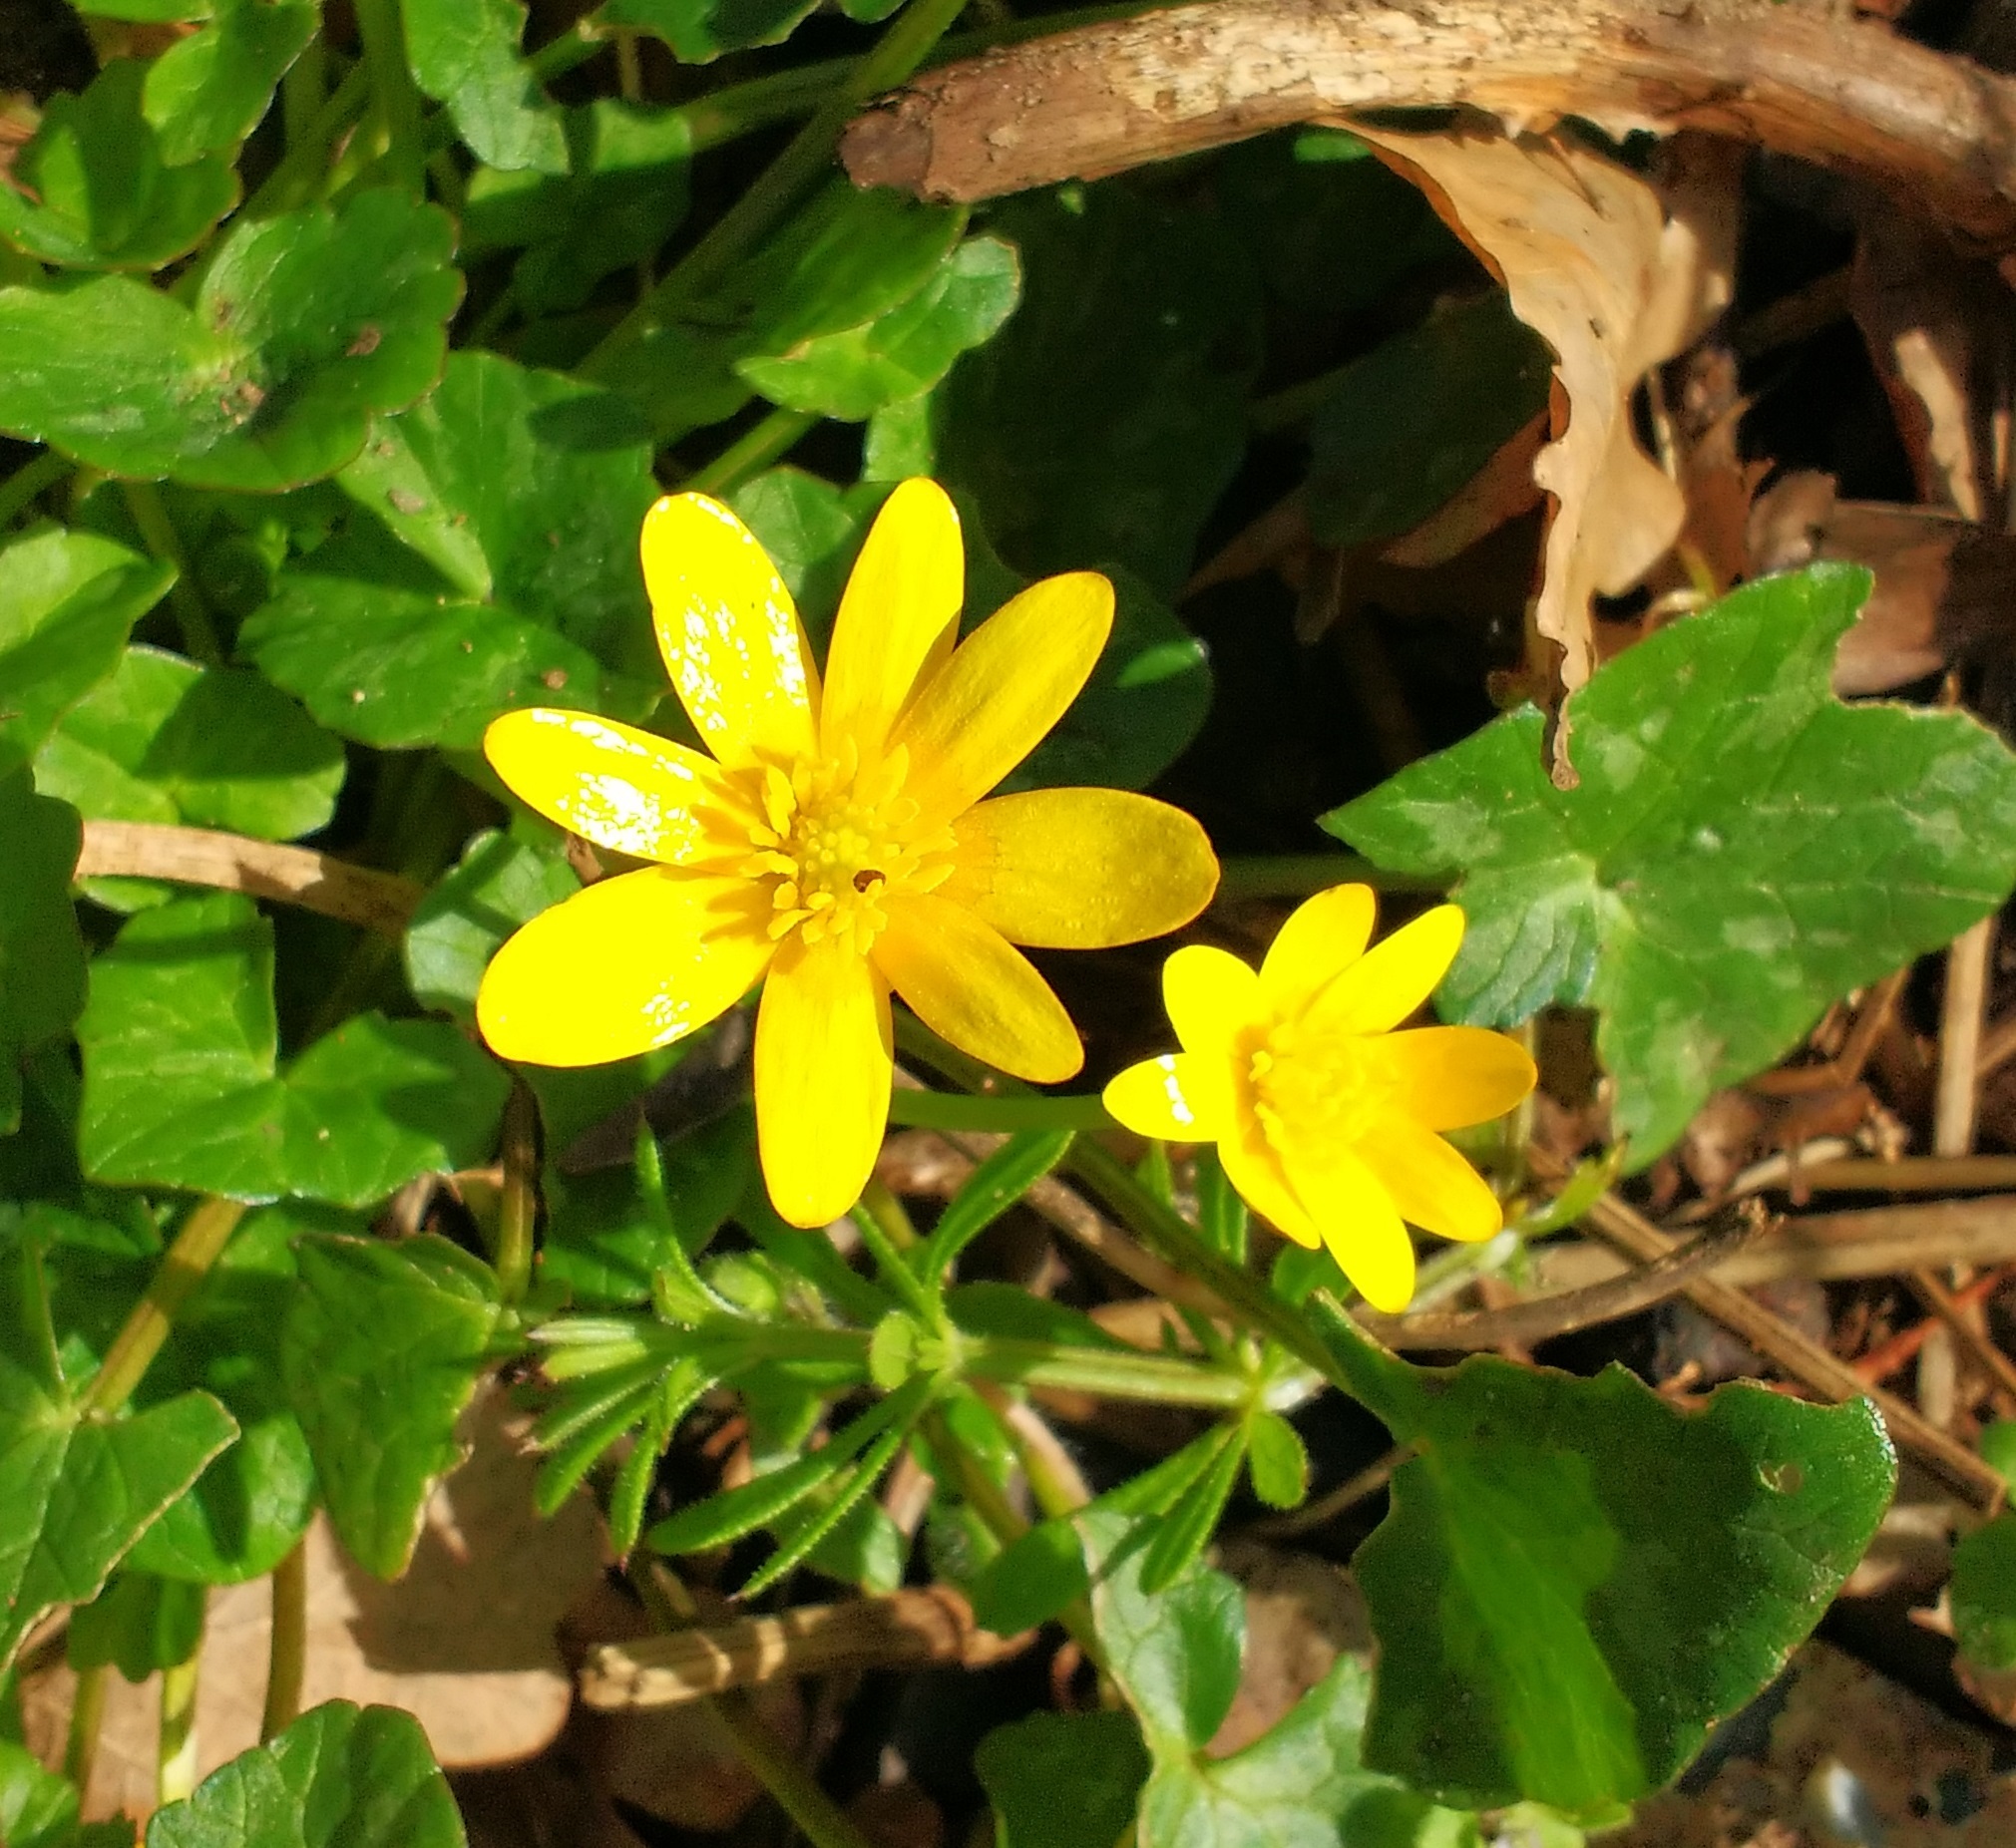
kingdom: Plantae
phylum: Tracheophyta
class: Magnoliopsida
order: Ranunculales
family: Ranunculaceae
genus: Ficaria
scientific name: Ficaria verna
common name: Lesser celandine
